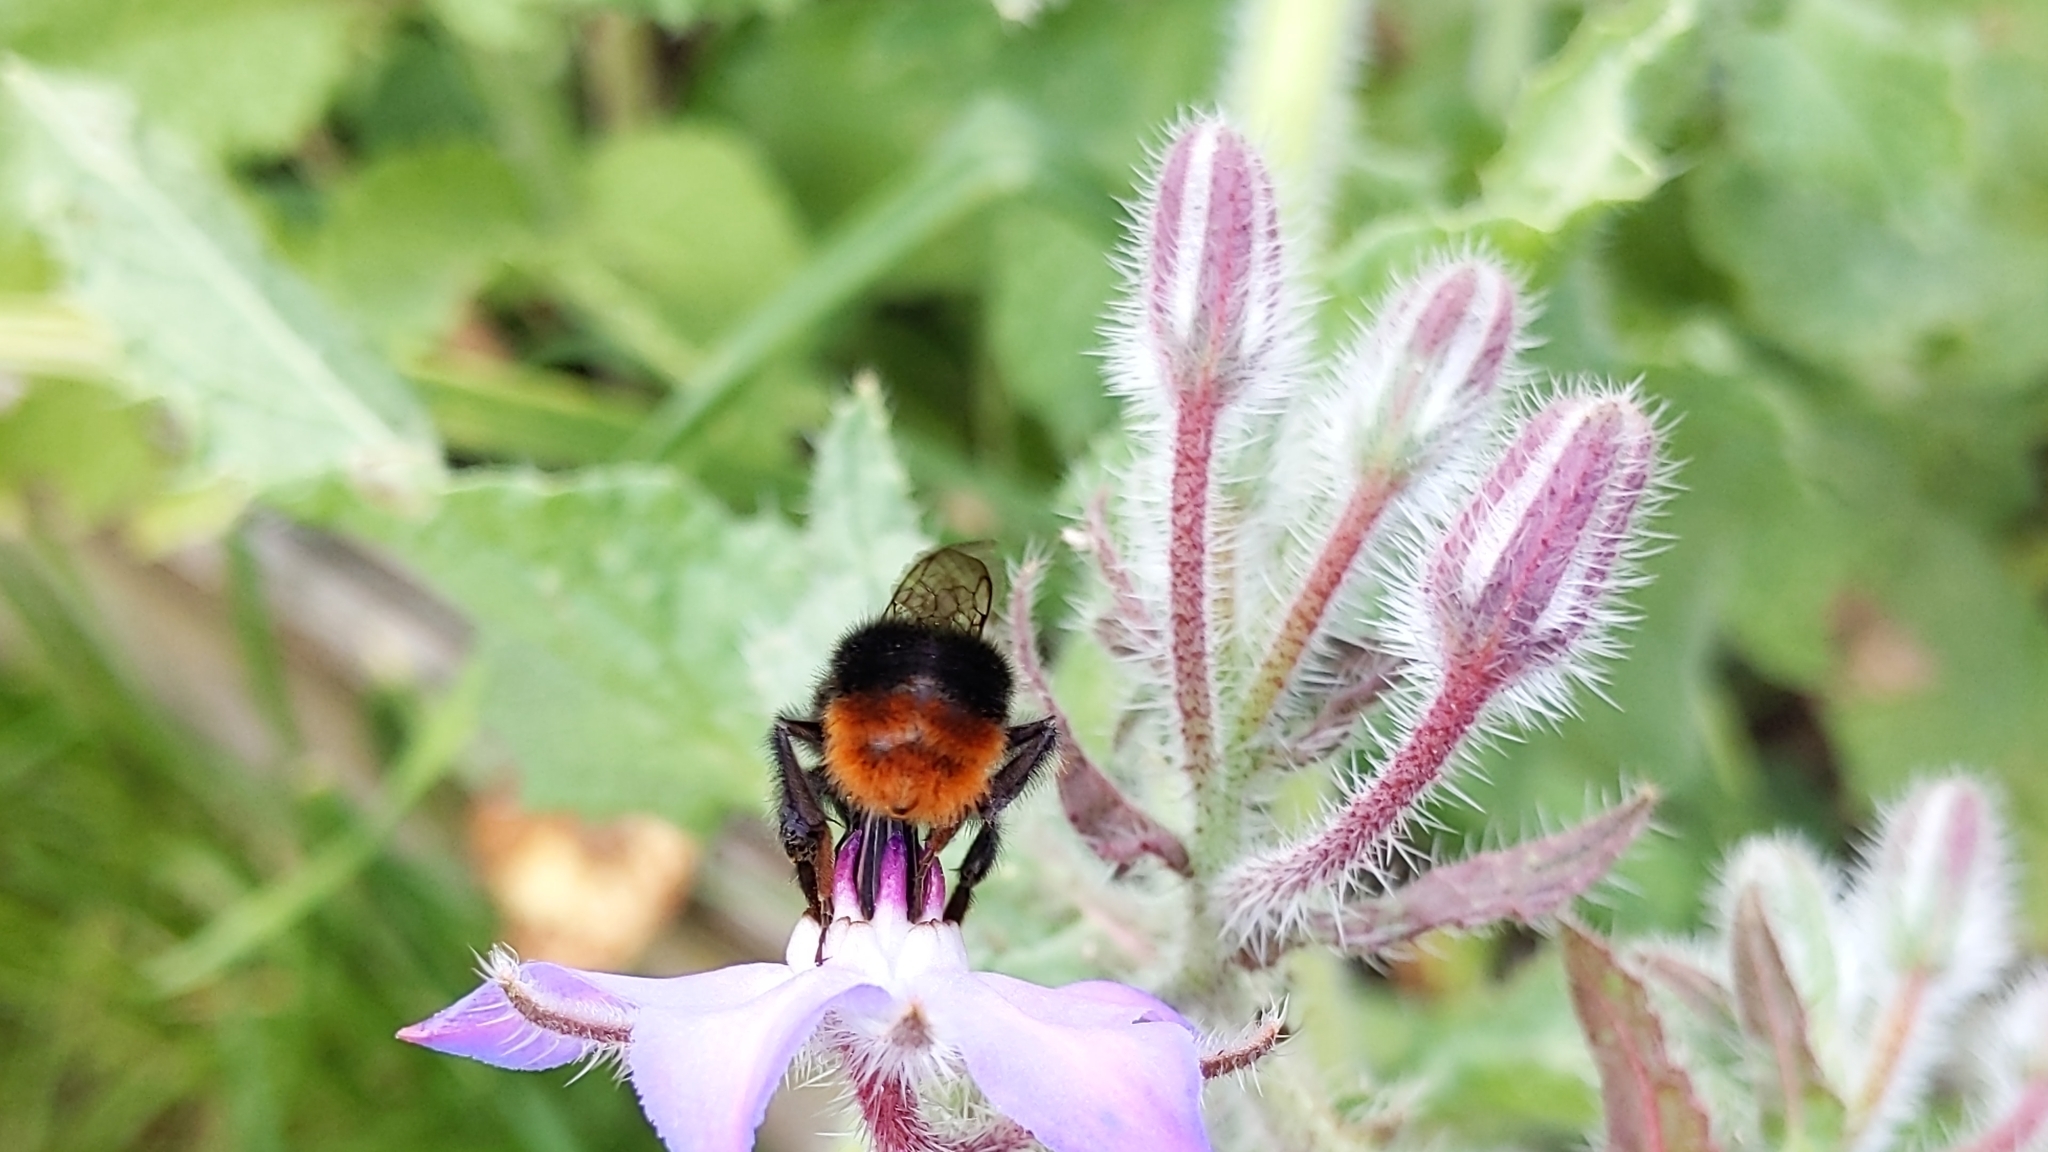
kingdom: Animalia
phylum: Arthropoda
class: Insecta
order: Hymenoptera
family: Apidae
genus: Bombus
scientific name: Bombus lapidarius
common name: Large red-tailed humble-bee
